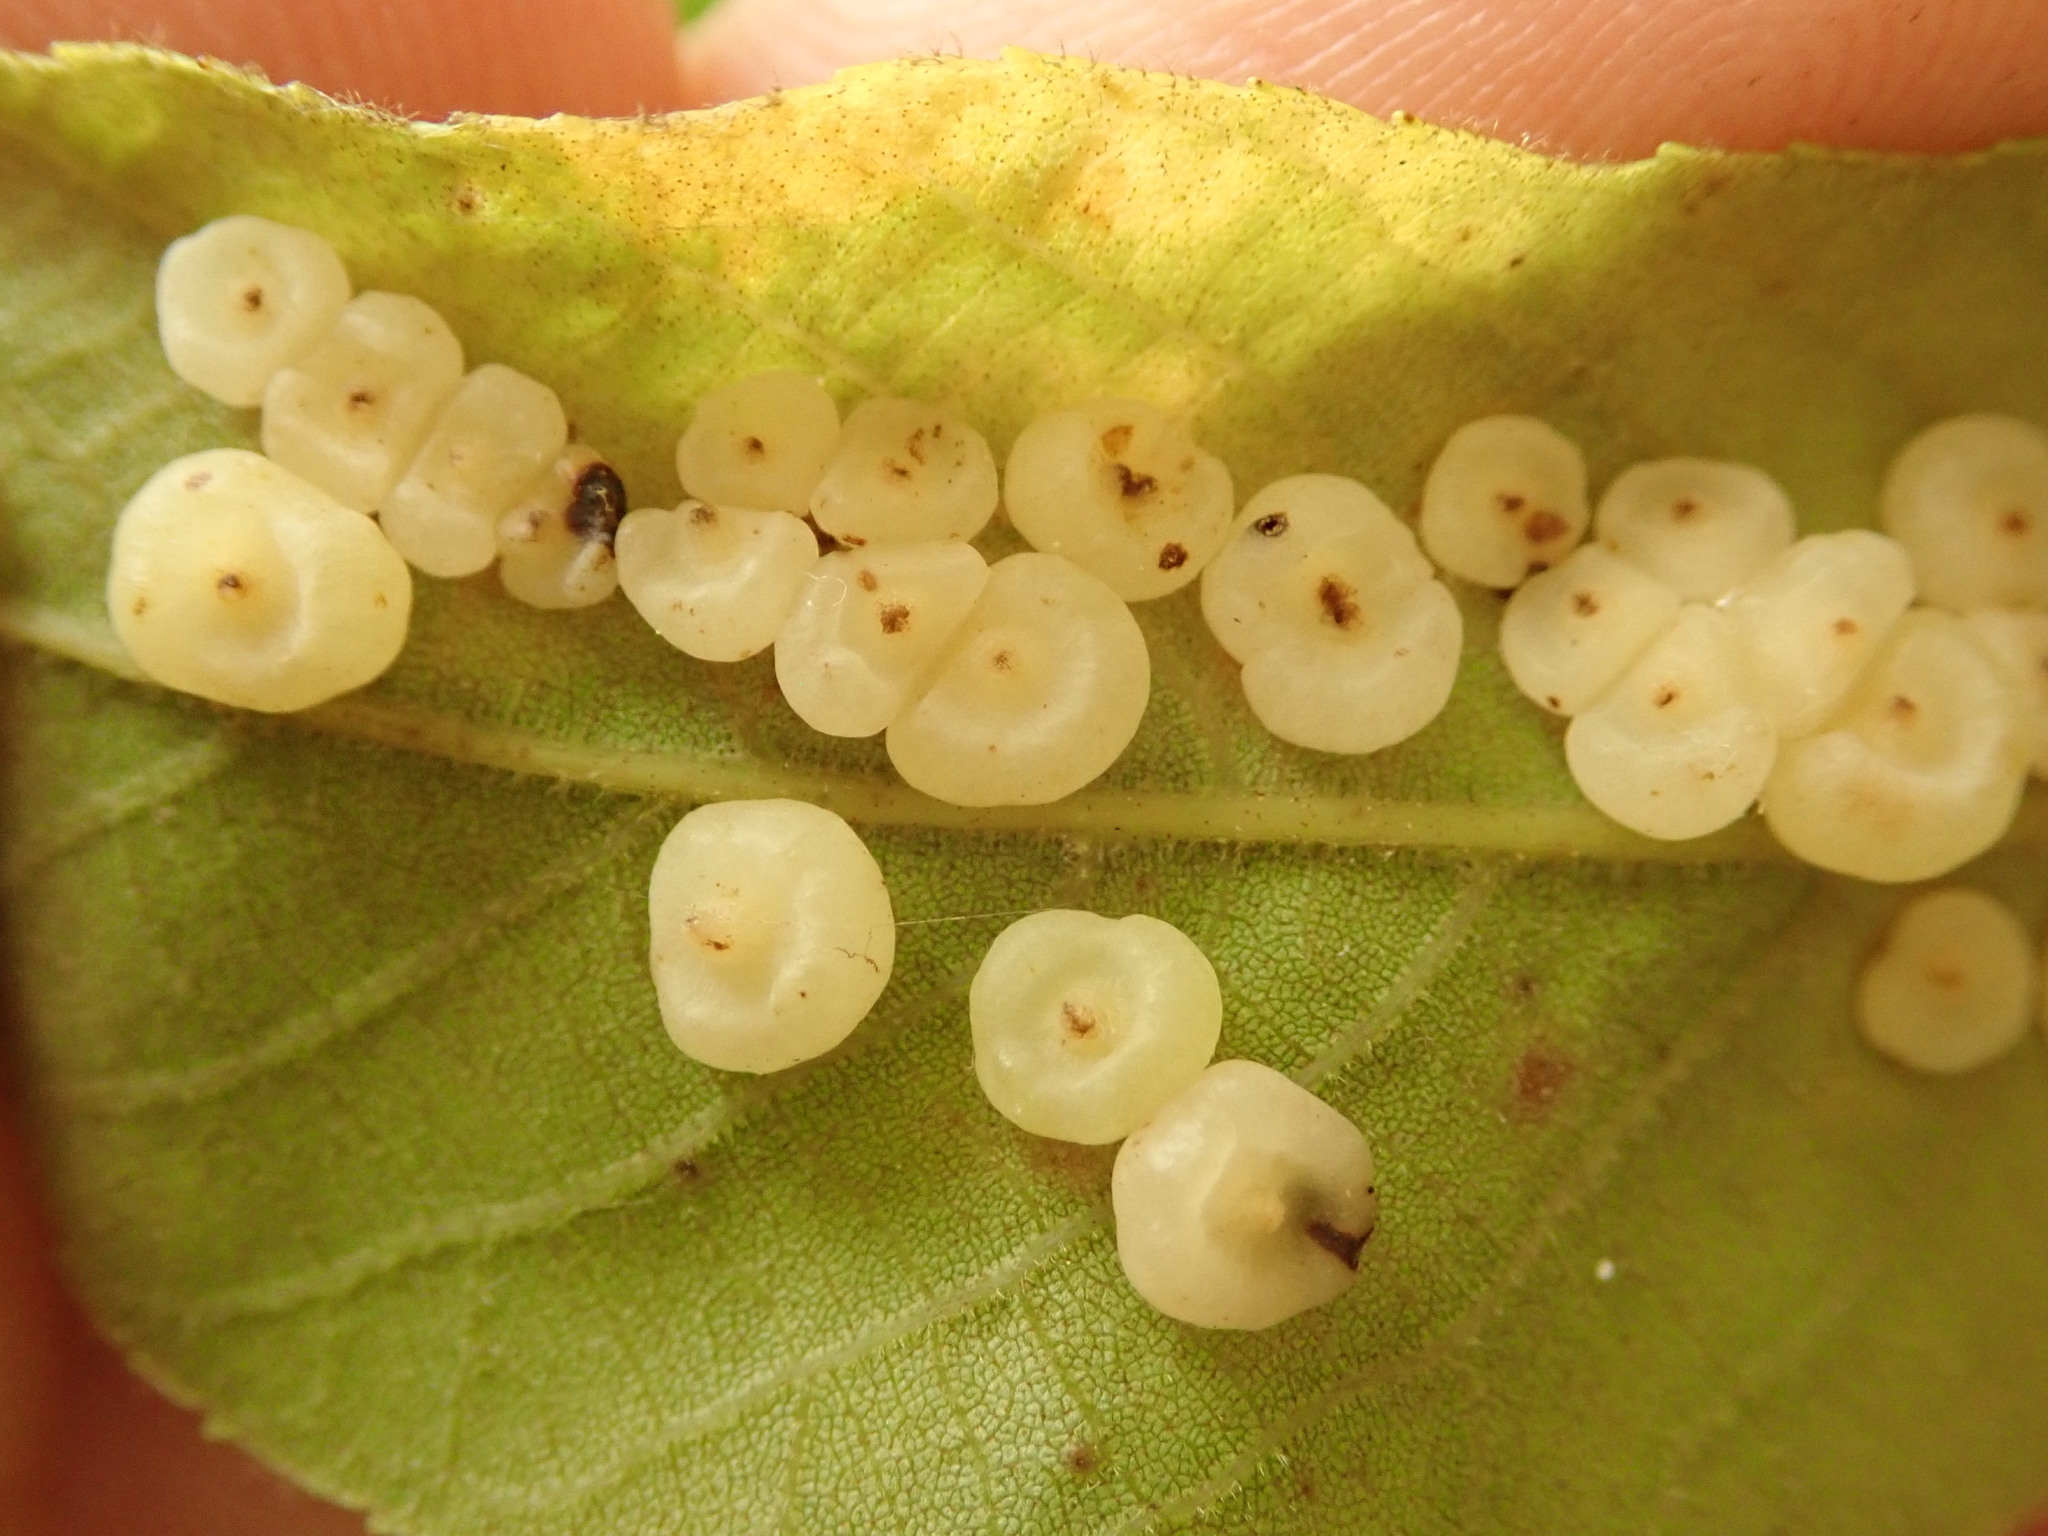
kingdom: Animalia
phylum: Arthropoda
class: Insecta
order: Diptera
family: Cecidomyiidae
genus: Caryomyia
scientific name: Caryomyia biretta
